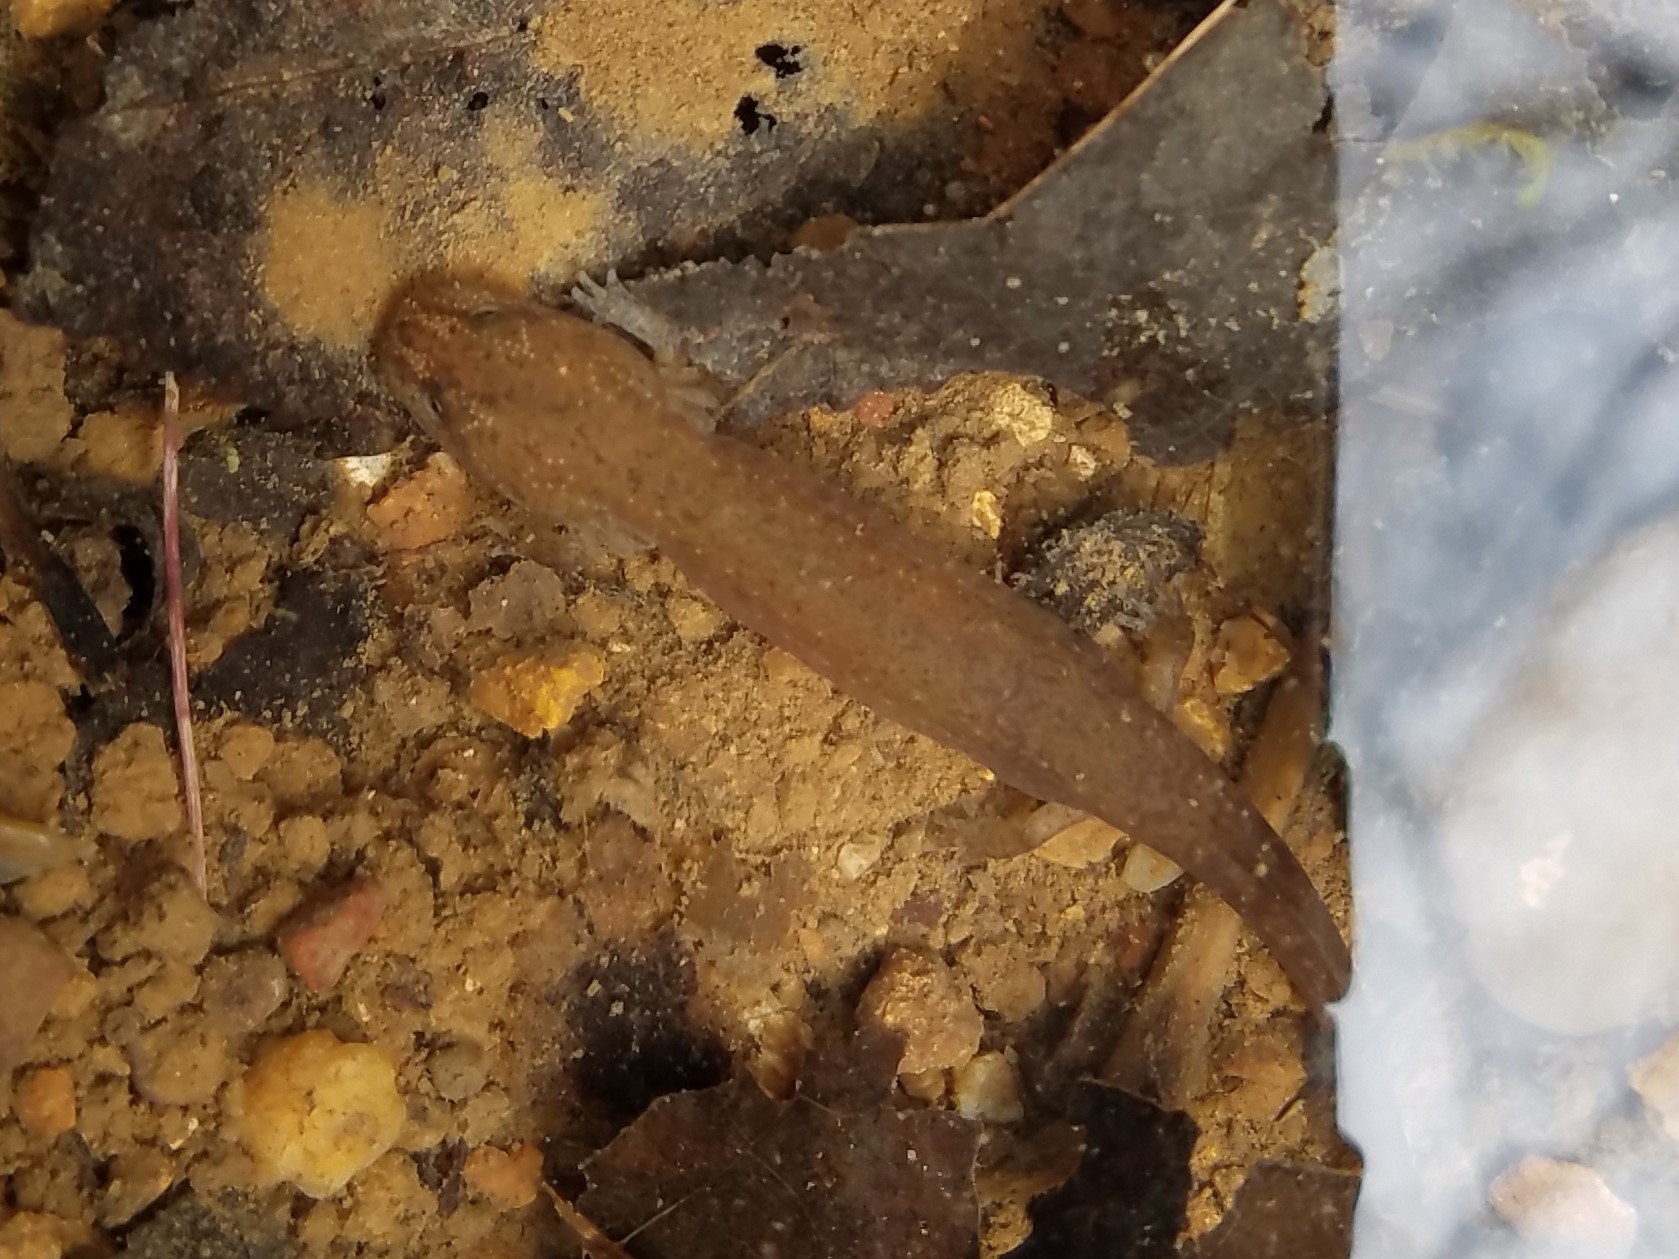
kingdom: Animalia
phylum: Chordata
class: Amphibia
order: Caudata
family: Plethodontidae
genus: Gyrinophilus
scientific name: Gyrinophilus porphyriticus
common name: Spring salamander
